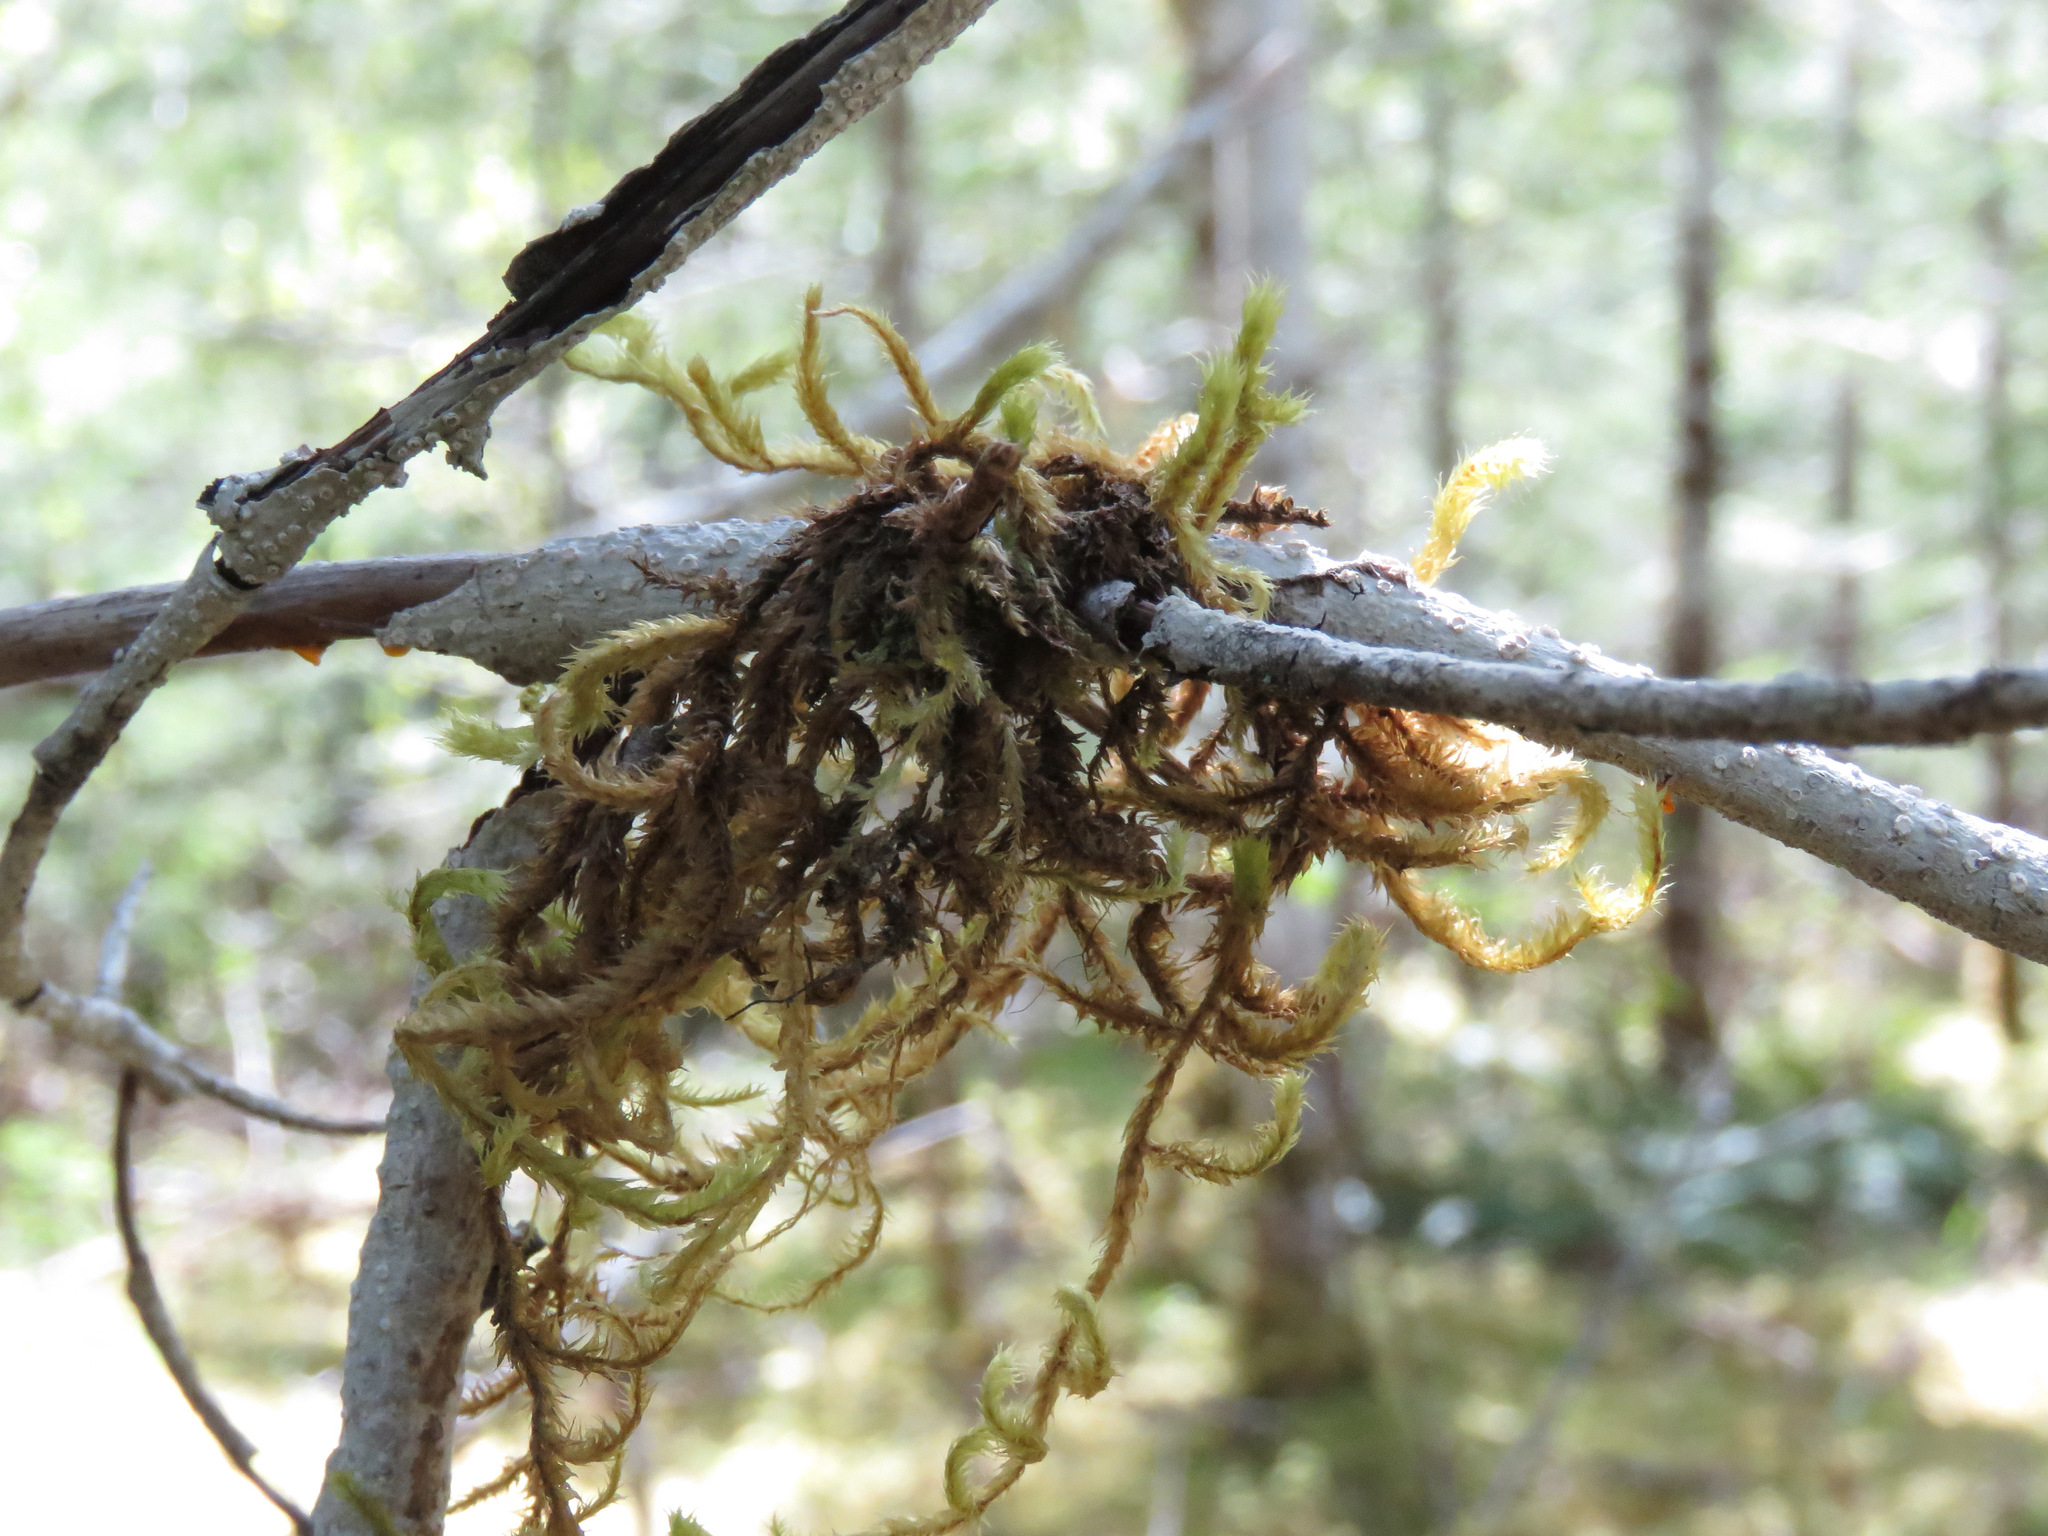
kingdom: Plantae
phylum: Bryophyta
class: Bryopsida
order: Hypnales
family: Antitrichiaceae
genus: Antitrichia
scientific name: Antitrichia curtipendula
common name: Pendulous wing-moss
